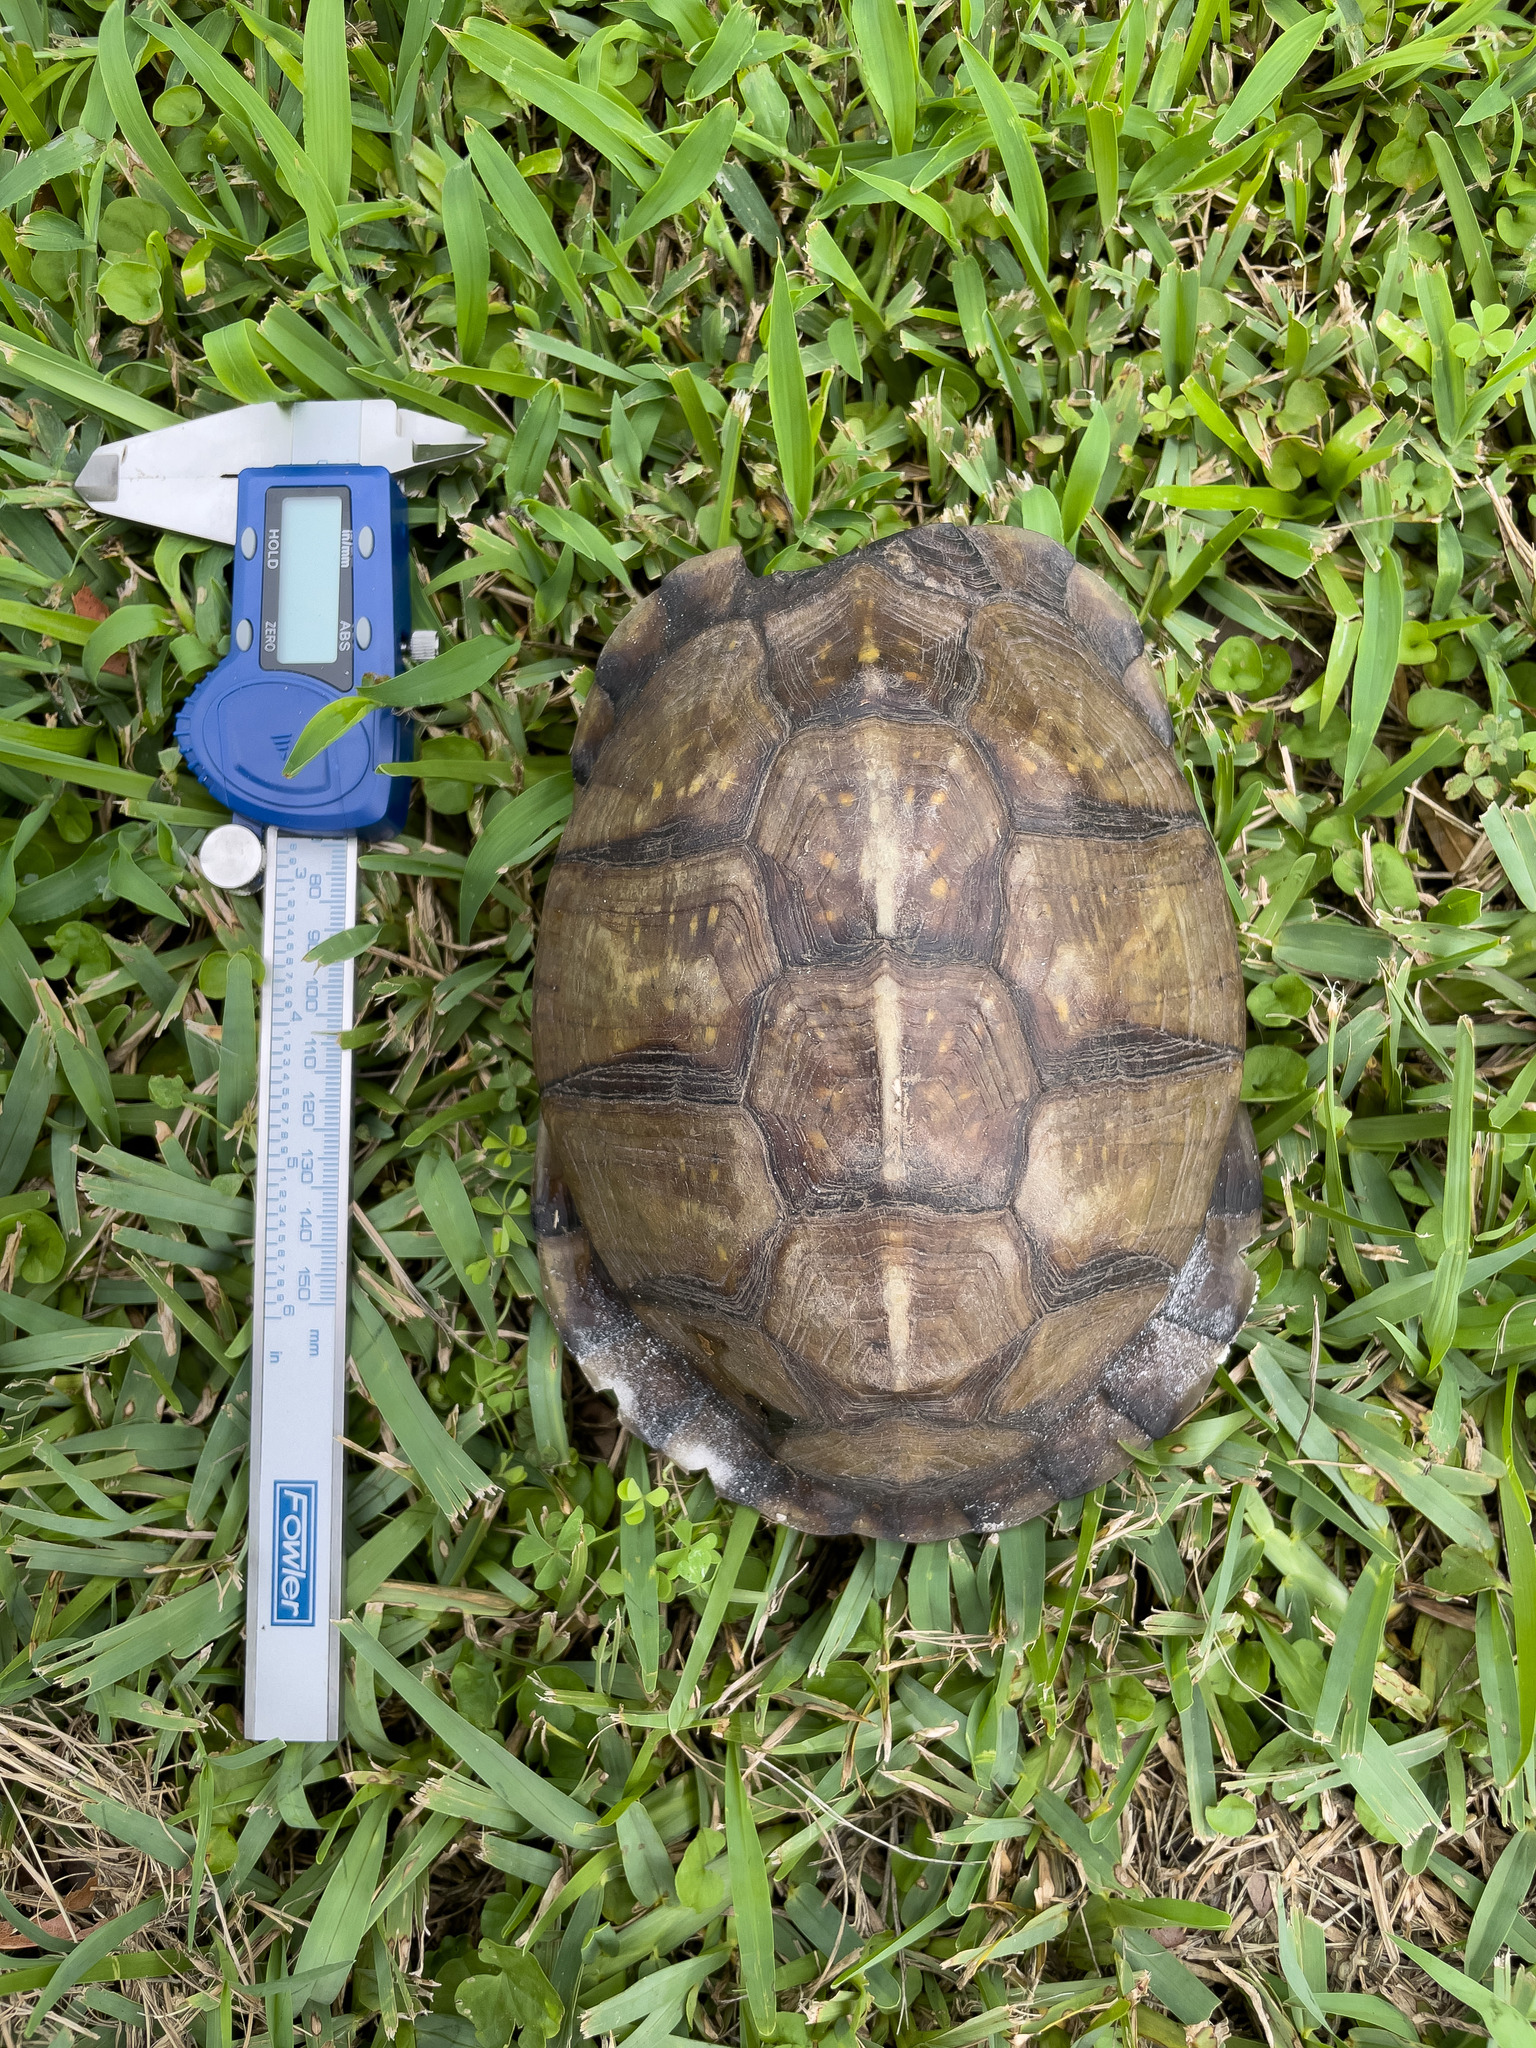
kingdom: Animalia
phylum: Chordata
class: Testudines
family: Emydidae
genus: Terrapene
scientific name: Terrapene carolina
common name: Common box turtle
